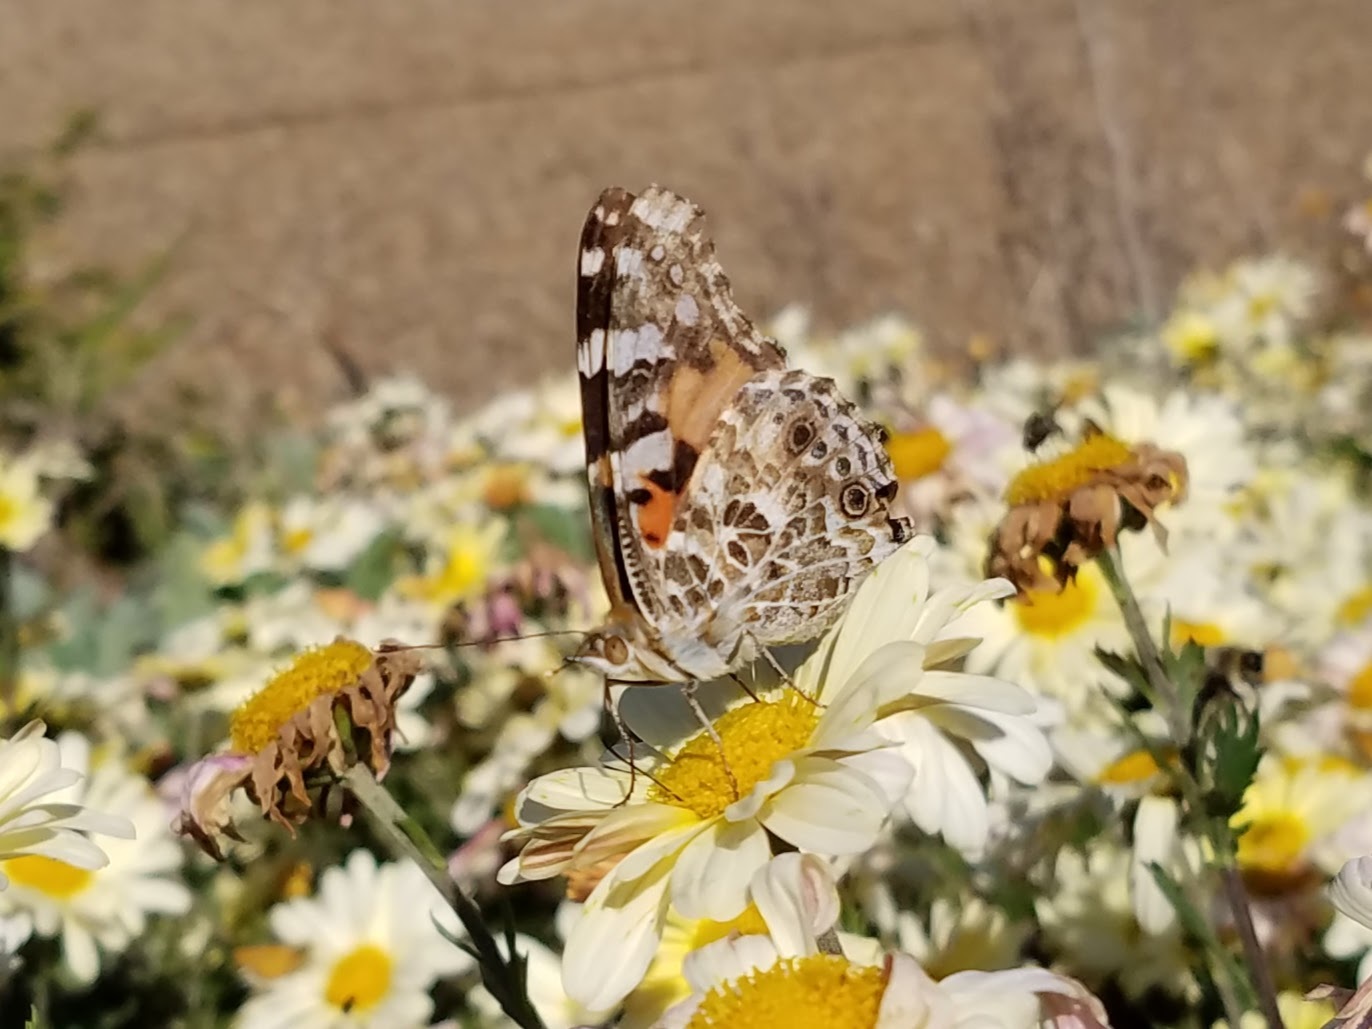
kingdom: Animalia
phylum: Arthropoda
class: Insecta
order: Lepidoptera
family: Nymphalidae
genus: Vanessa
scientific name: Vanessa cardui
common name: Painted lady
